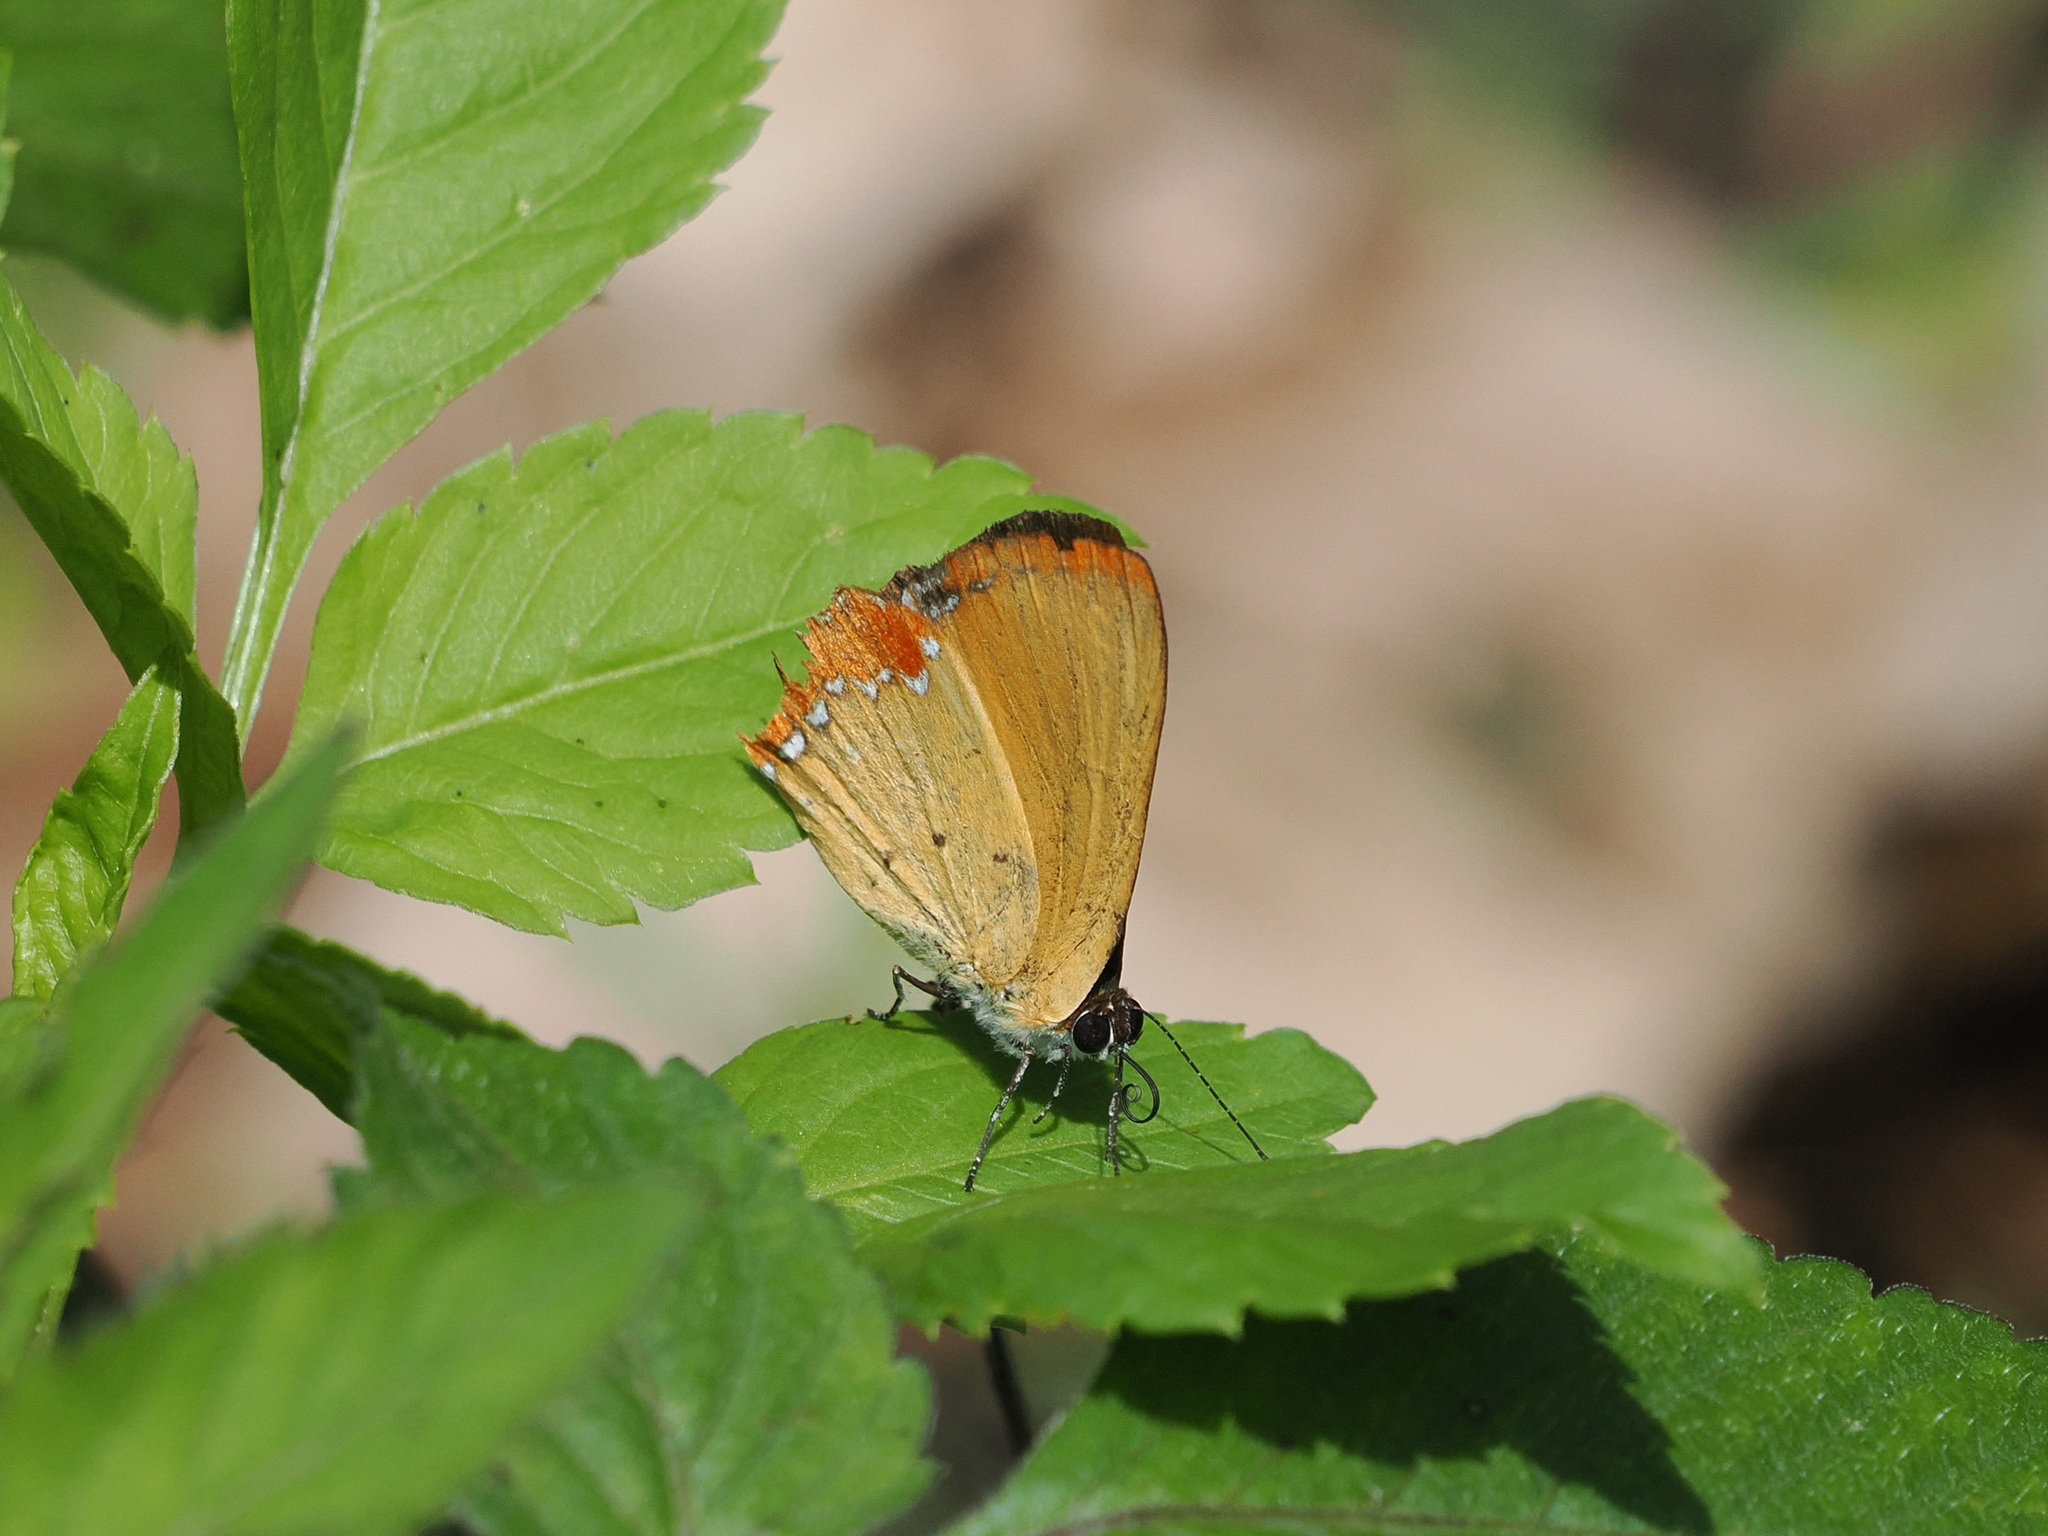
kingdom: Animalia
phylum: Arthropoda
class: Insecta
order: Lepidoptera
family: Lycaenidae
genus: Heliophorus
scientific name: Heliophorus ila
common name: Restricted purple sapphire
